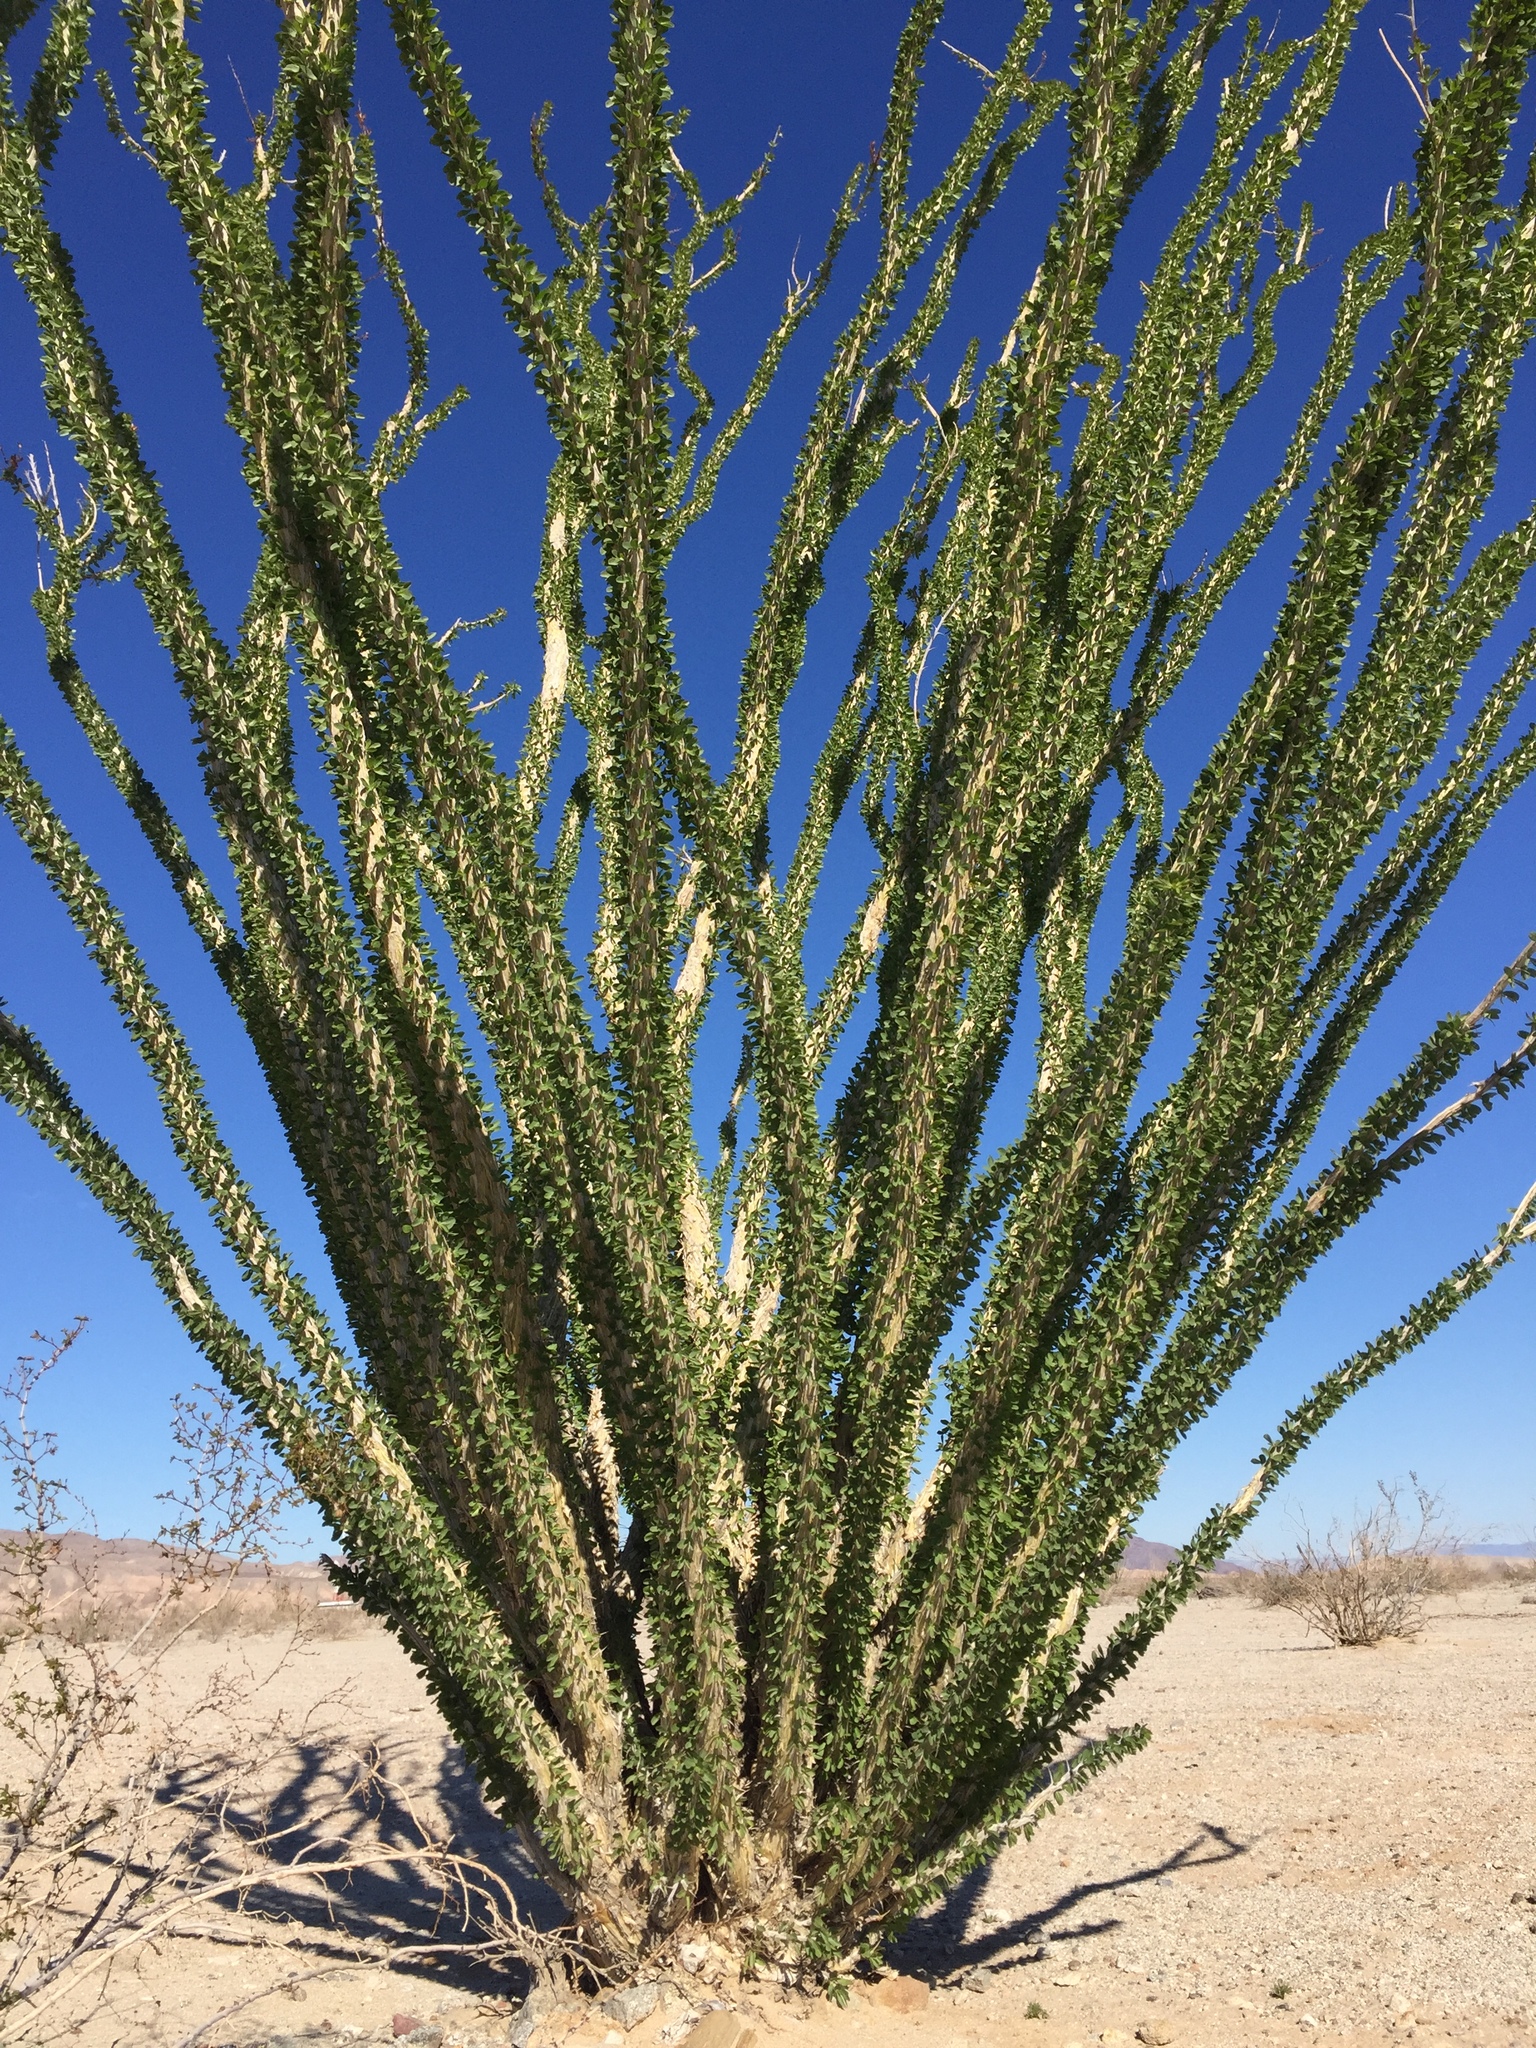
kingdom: Plantae
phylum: Tracheophyta
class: Magnoliopsida
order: Ericales
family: Fouquieriaceae
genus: Fouquieria
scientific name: Fouquieria splendens
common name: Vine-cactus
